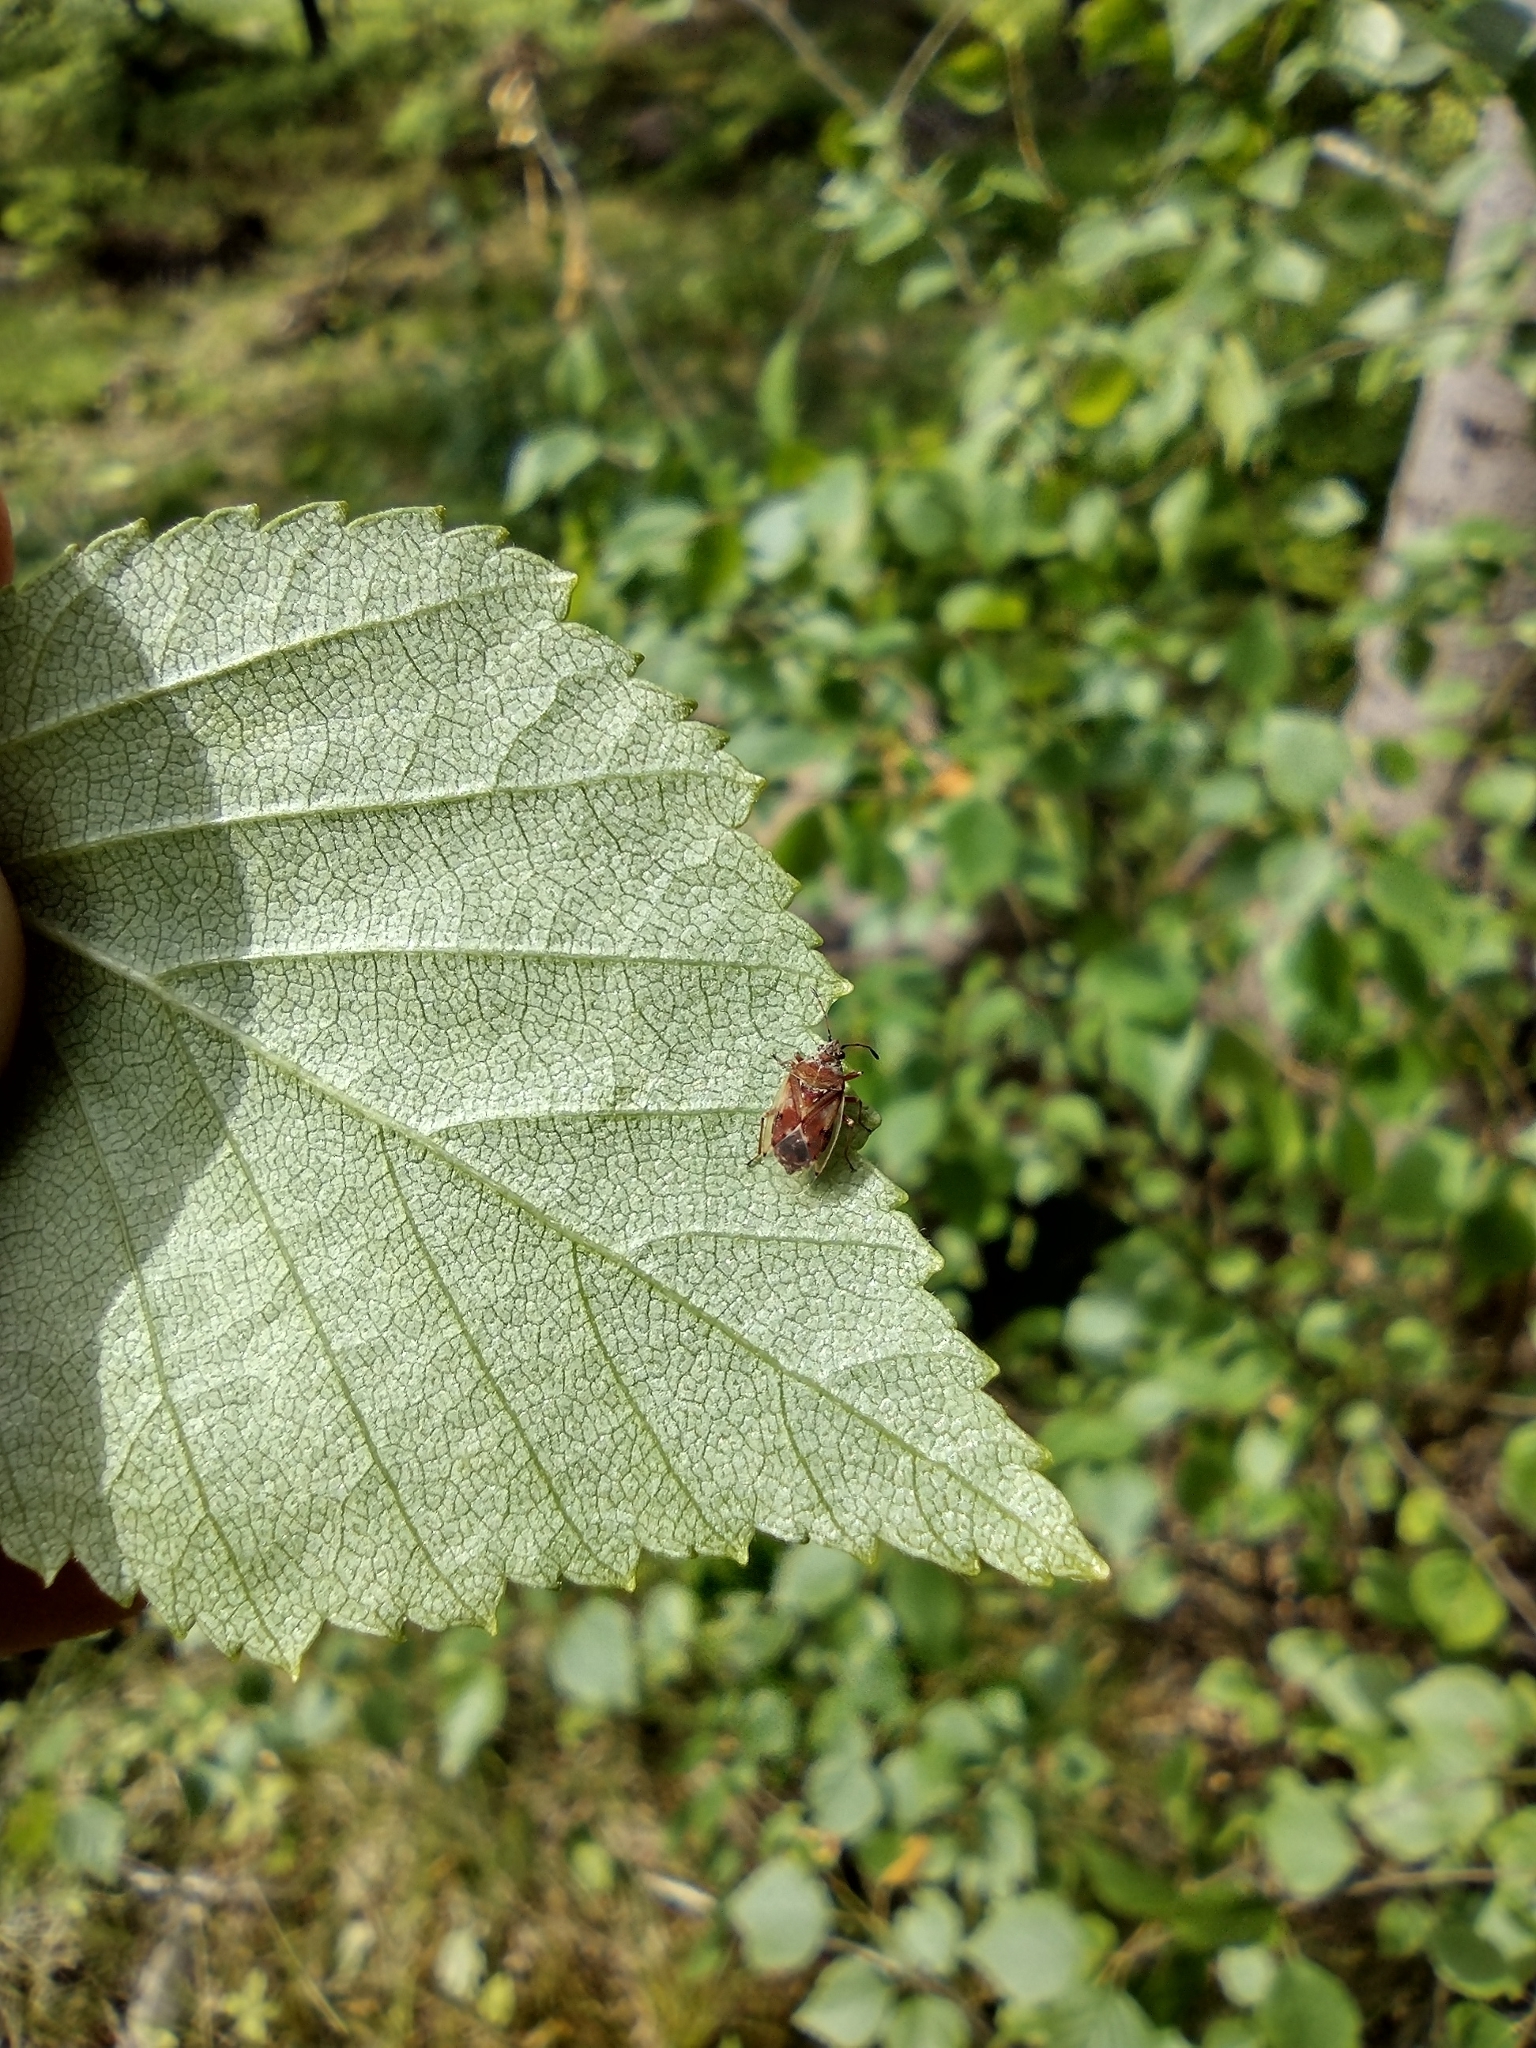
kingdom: Animalia
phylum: Arthropoda
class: Insecta
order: Hemiptera
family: Lygaeidae
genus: Kleidocerys
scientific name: Kleidocerys resedae
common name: Birch catkin bug
